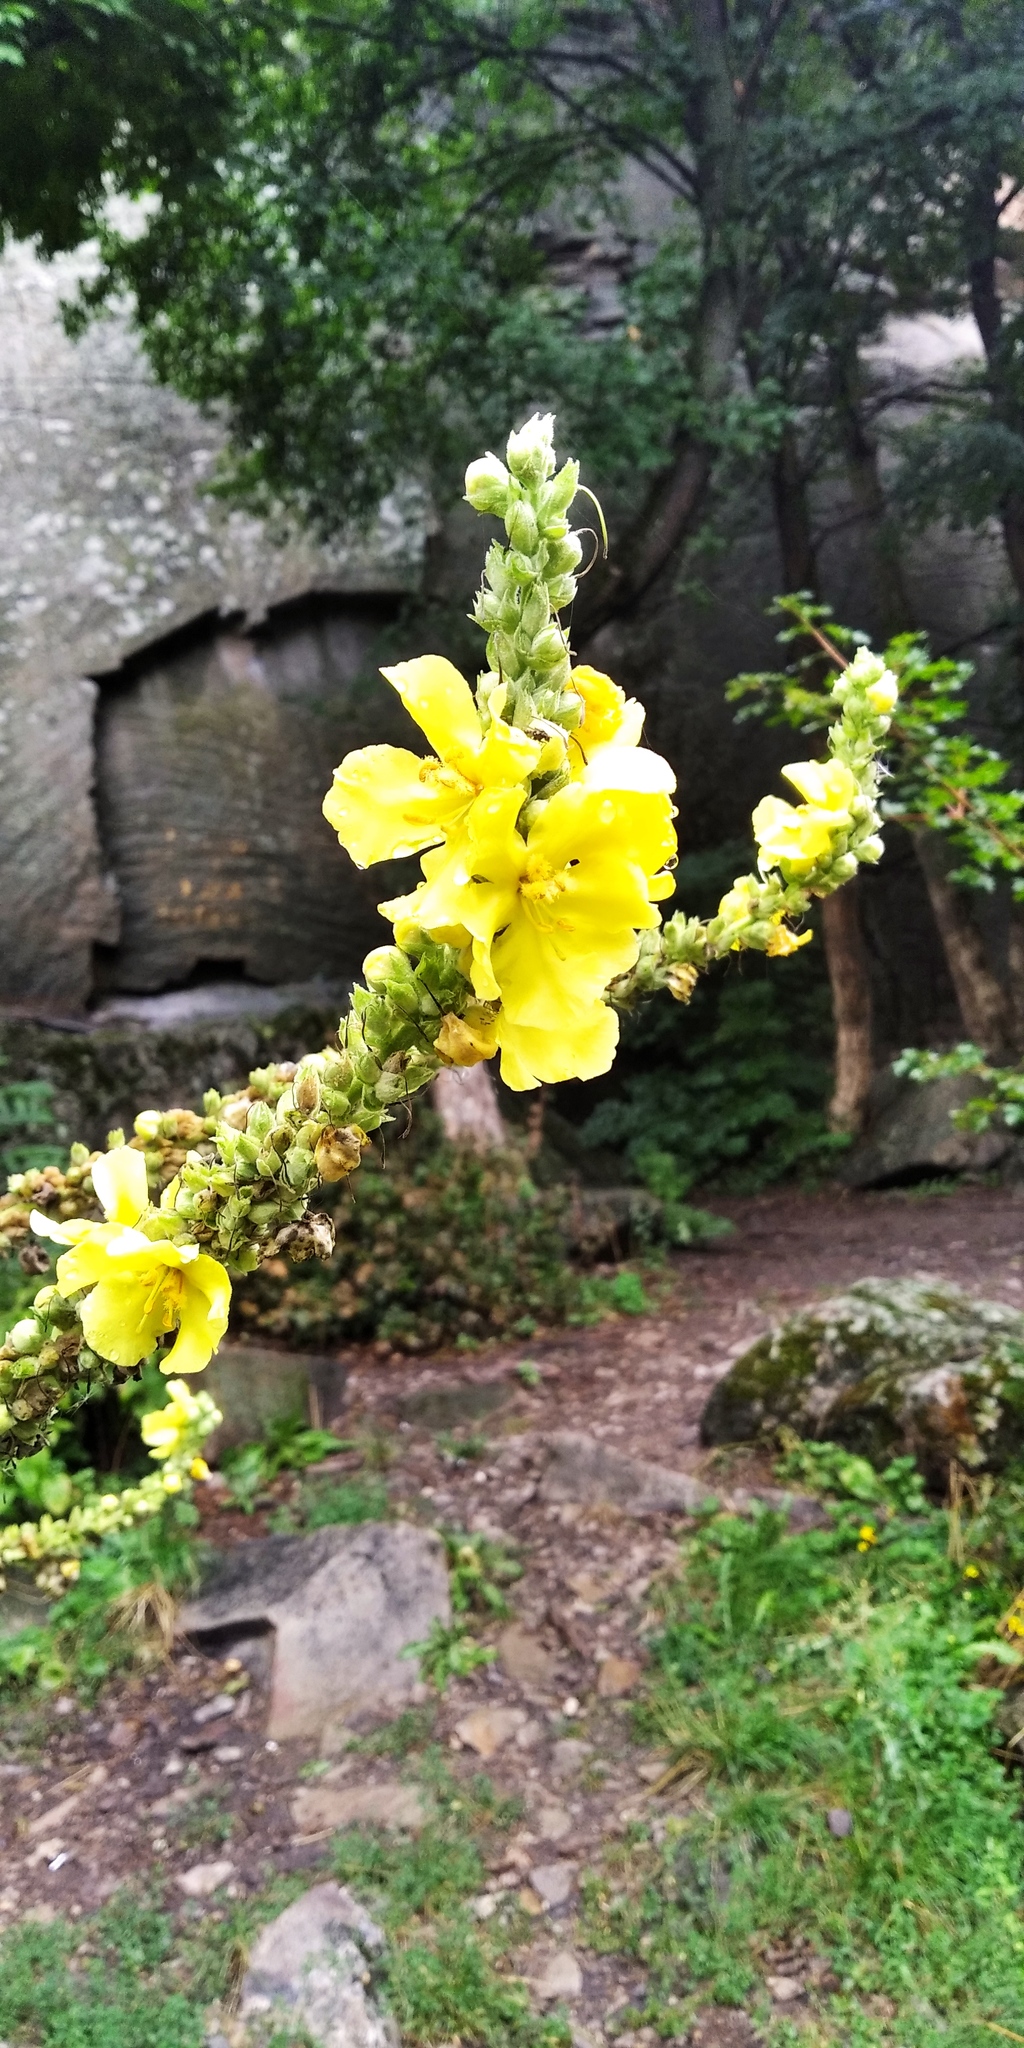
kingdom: Plantae
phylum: Tracheophyta
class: Magnoliopsida
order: Lamiales
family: Scrophulariaceae
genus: Verbascum
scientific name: Verbascum phlomoides
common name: Orange mullein
